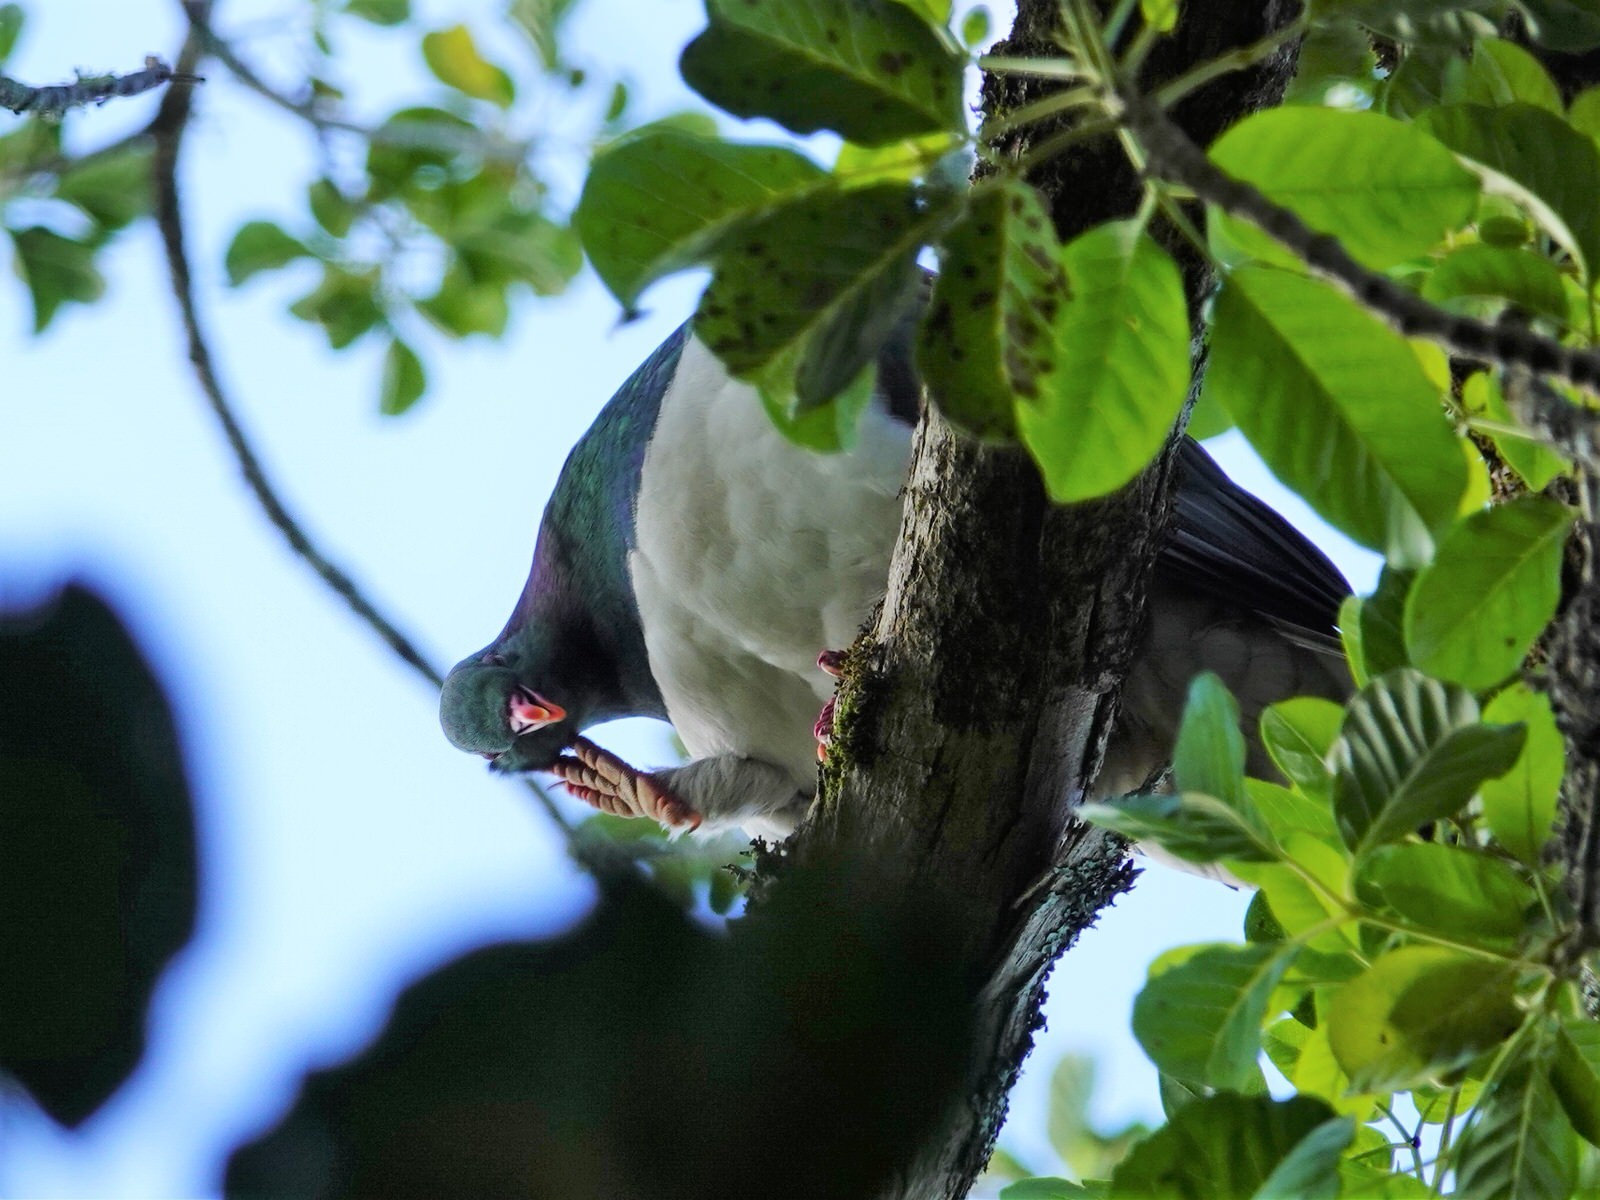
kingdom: Animalia
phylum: Chordata
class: Aves
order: Columbiformes
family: Columbidae
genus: Hemiphaga
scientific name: Hemiphaga novaeseelandiae
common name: New zealand pigeon
